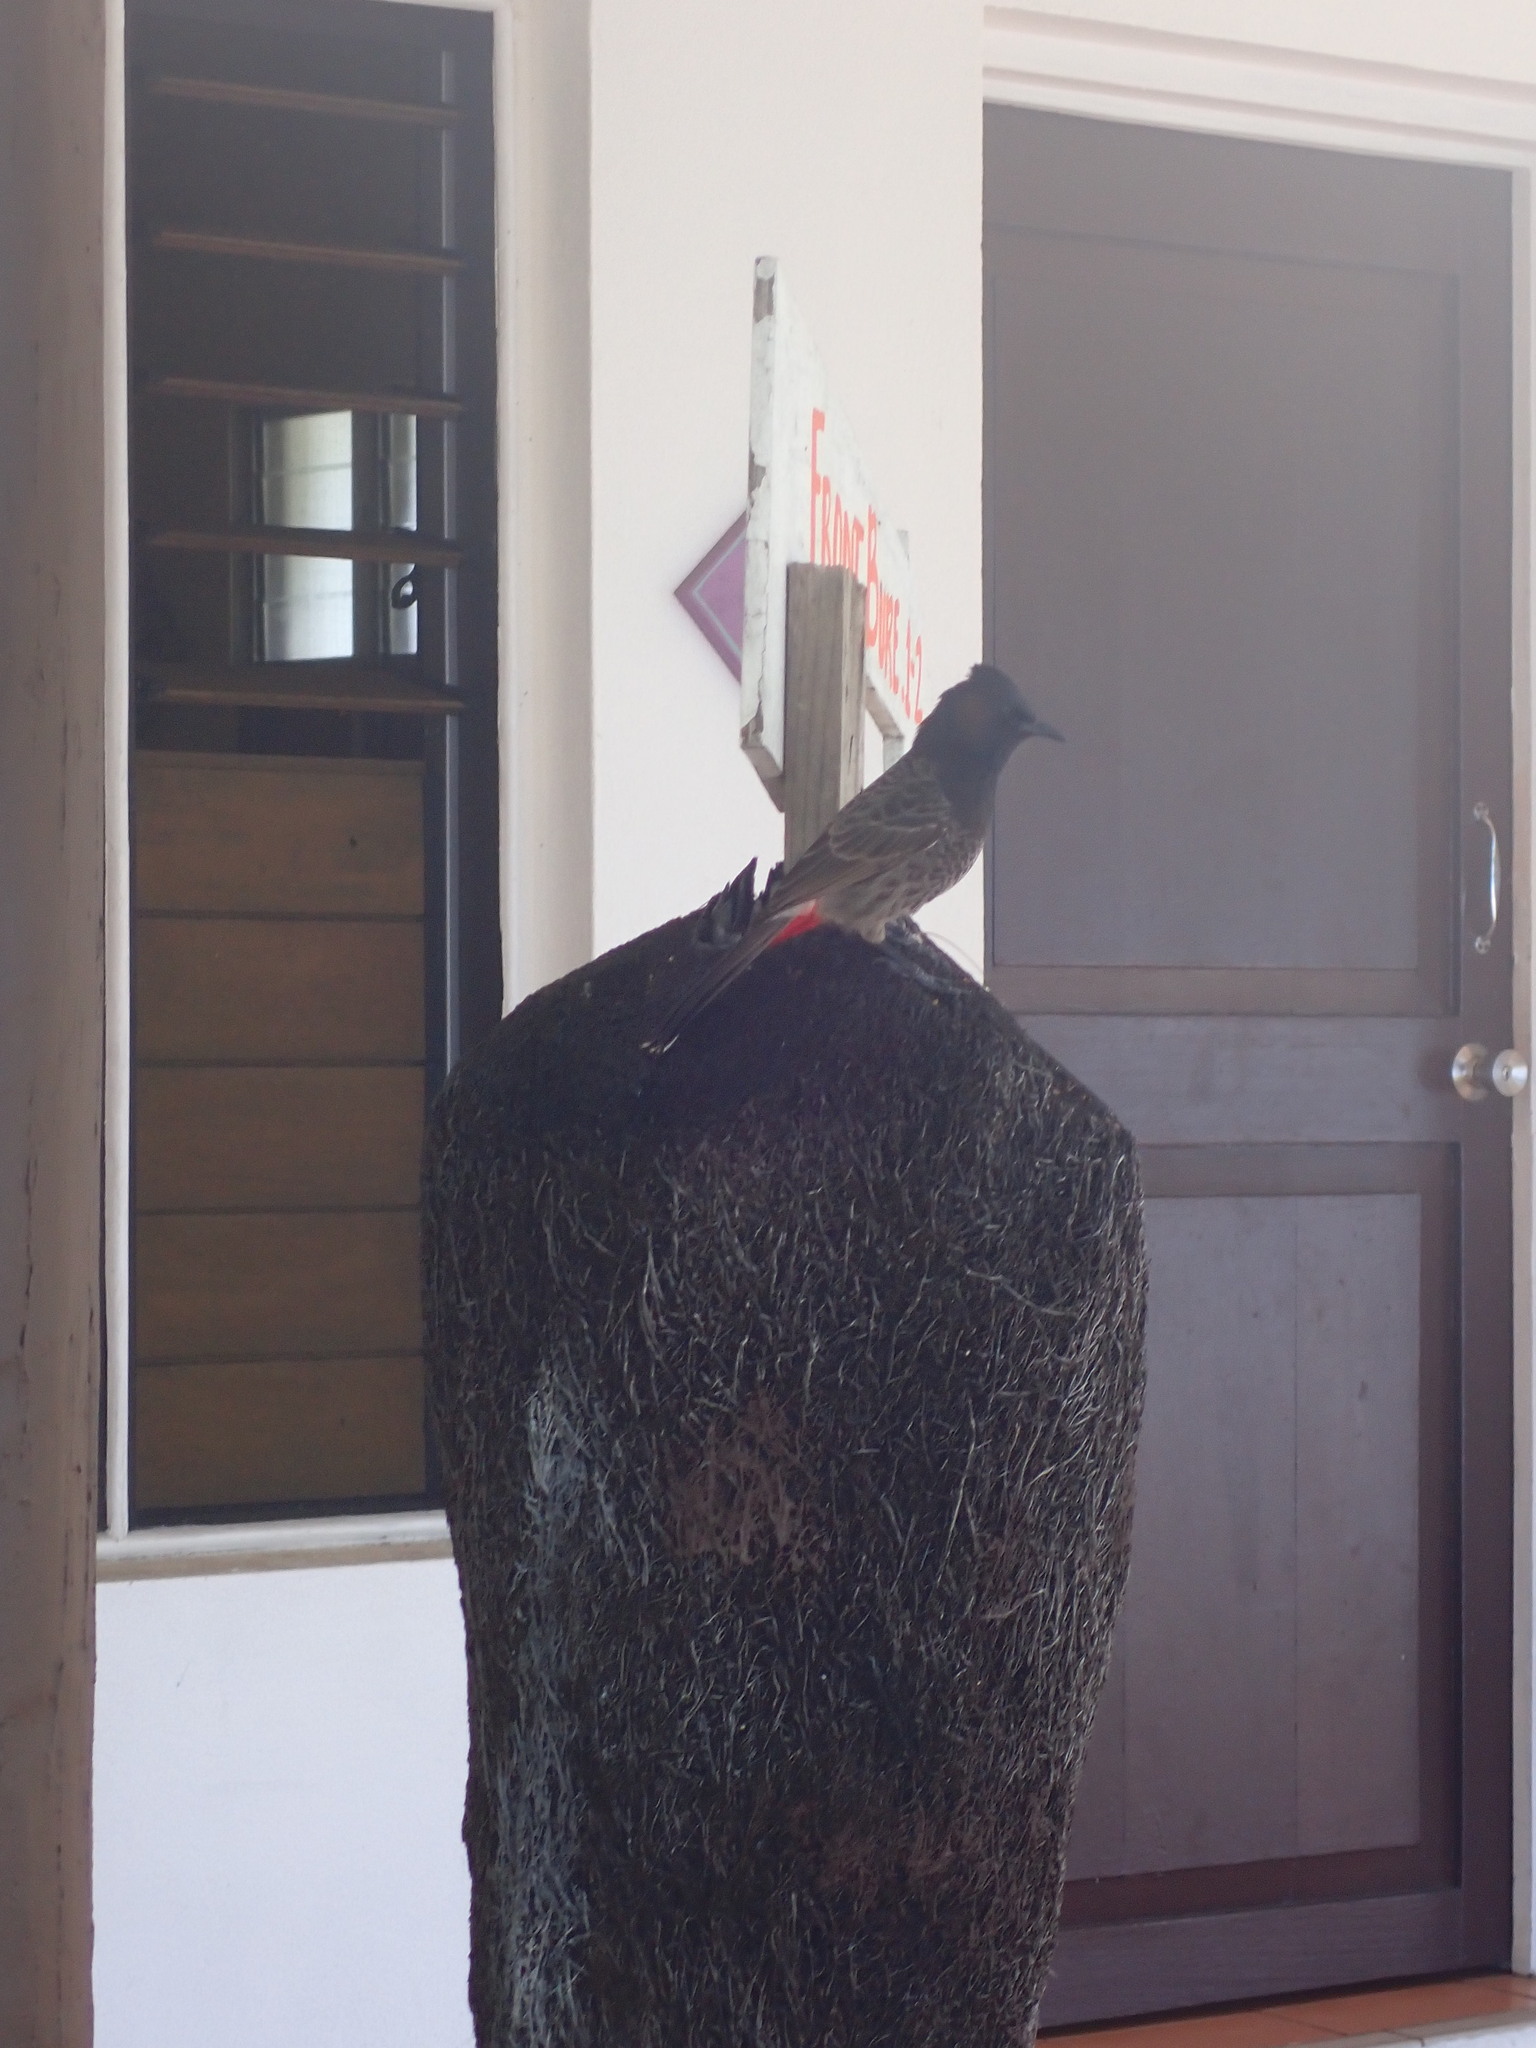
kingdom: Animalia
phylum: Chordata
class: Aves
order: Passeriformes
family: Pycnonotidae
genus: Pycnonotus
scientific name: Pycnonotus cafer
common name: Red-vented bulbul
